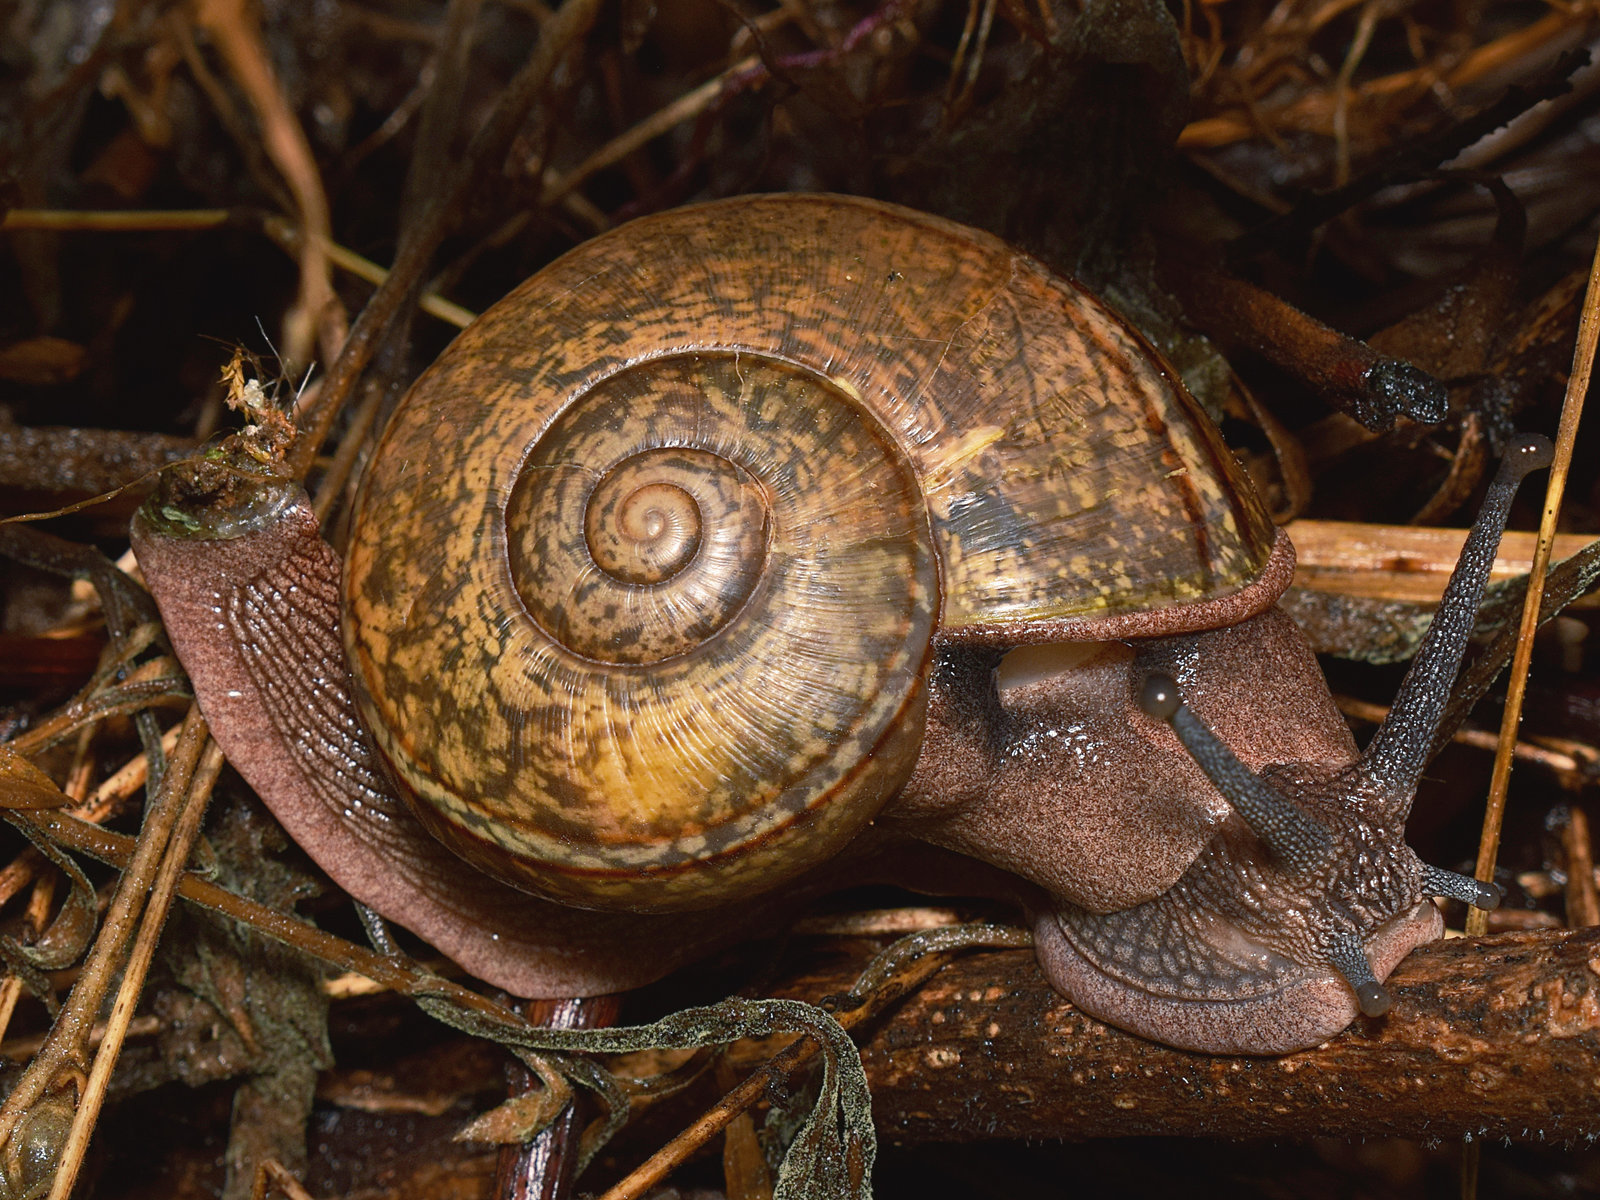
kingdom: Animalia
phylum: Mollusca
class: Gastropoda
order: Stylommatophora
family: Ariophantidae
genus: Ariophanta
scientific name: Ariophanta exilis
